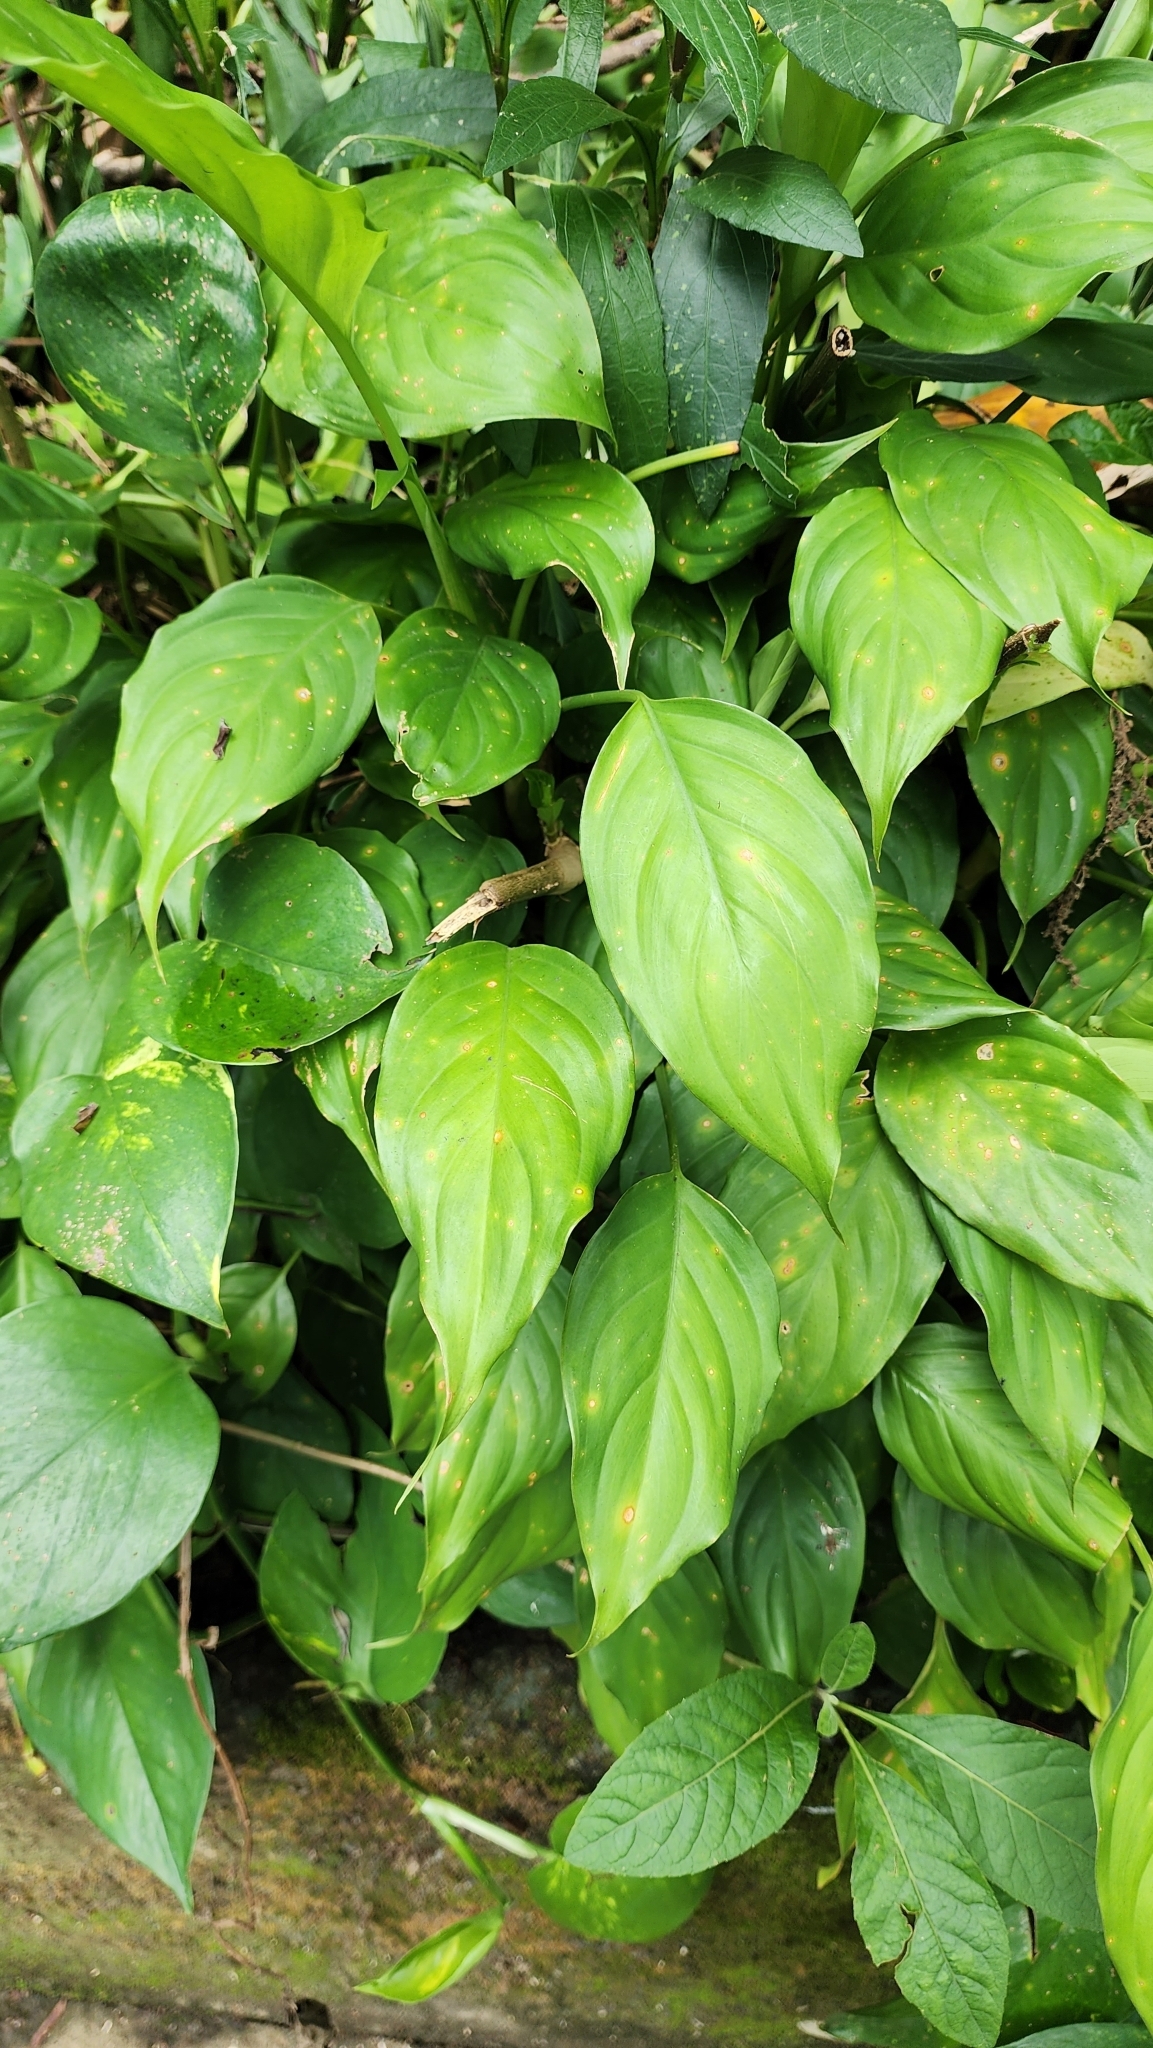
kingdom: Plantae
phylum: Tracheophyta
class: Liliopsida
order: Alismatales
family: Araceae
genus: Epipremnum
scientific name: Epipremnum aureum
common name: Golden hunter's-robe
